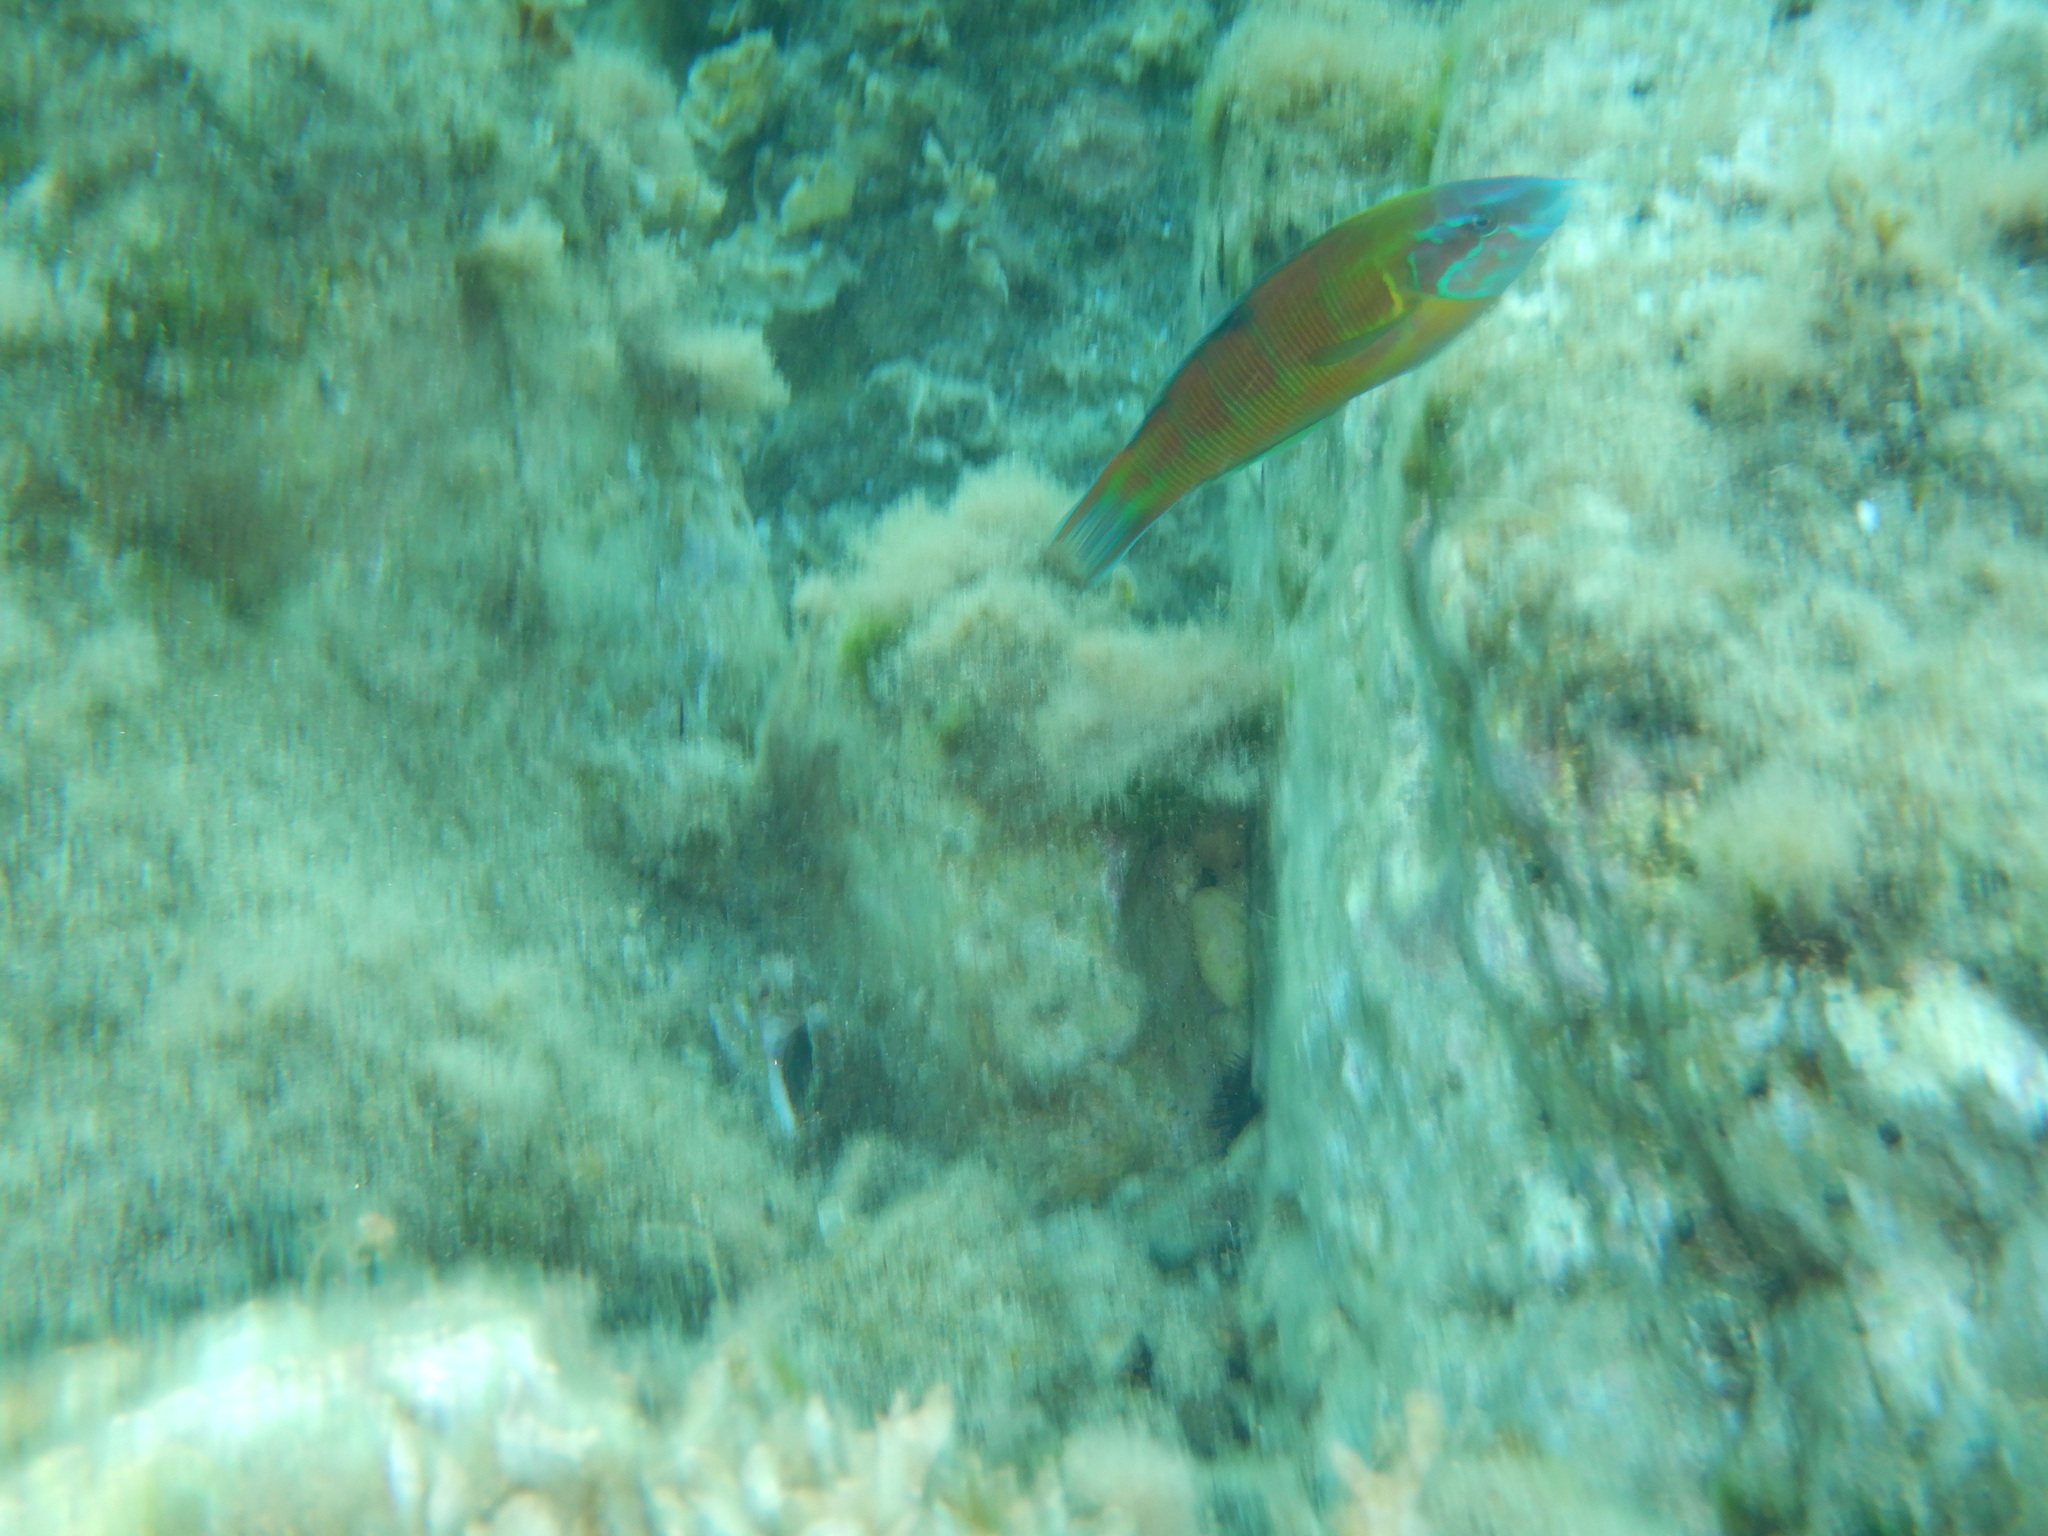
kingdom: Animalia
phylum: Chordata
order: Perciformes
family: Labridae
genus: Thalassoma
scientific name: Thalassoma pavo
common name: Ornate wrasse
